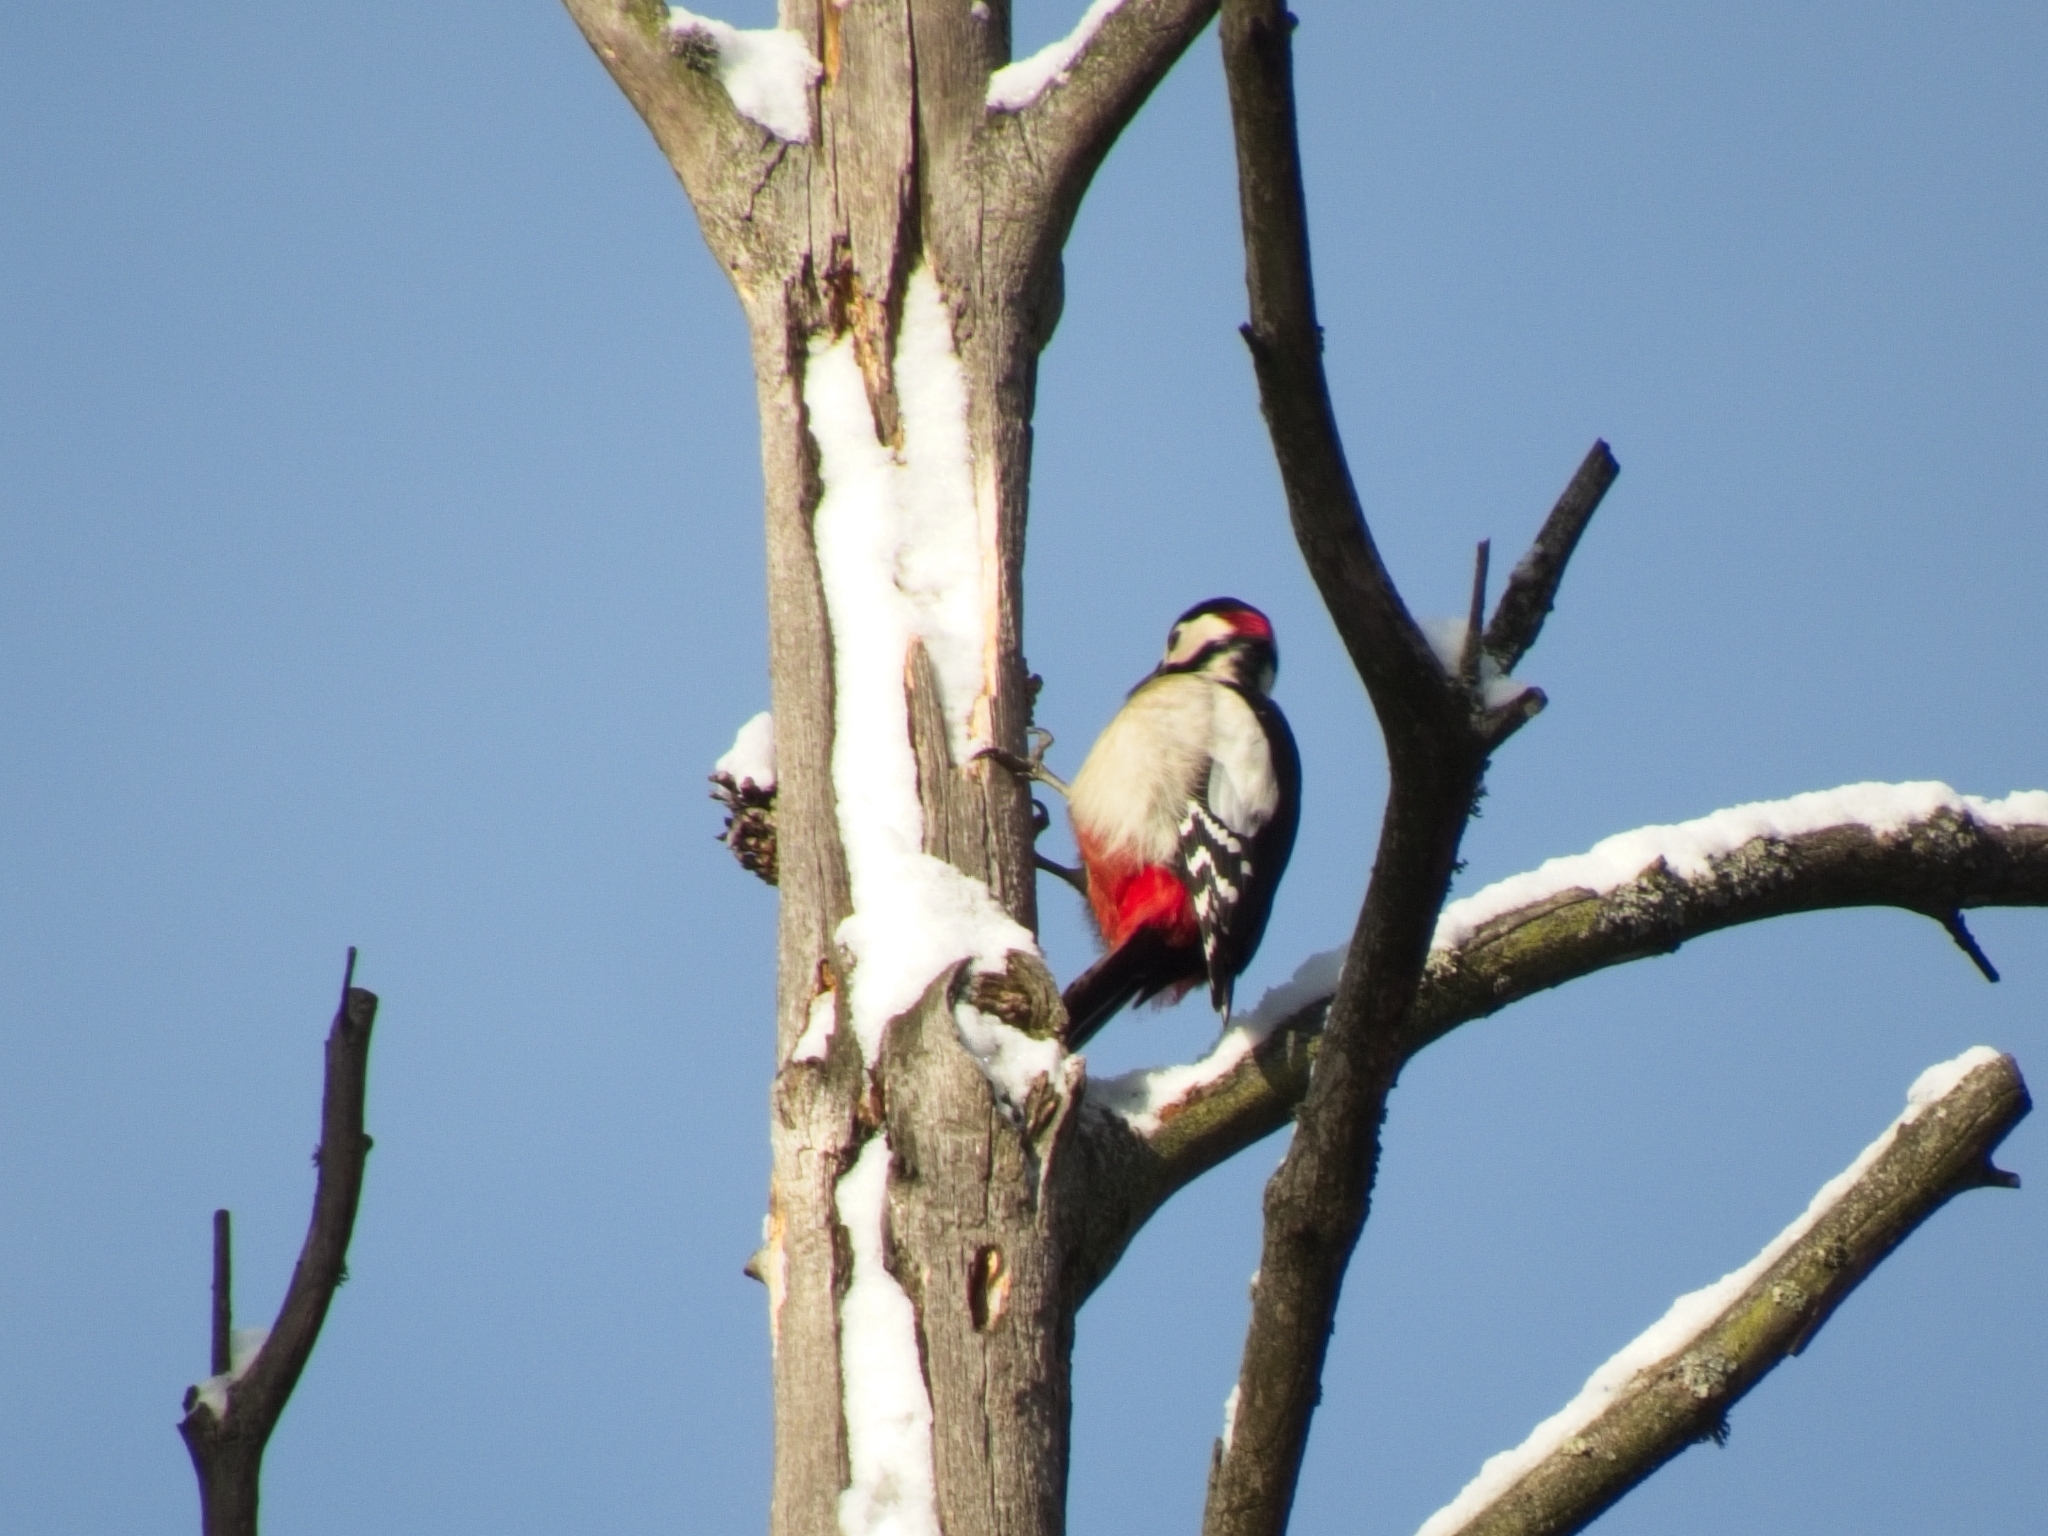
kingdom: Animalia
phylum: Chordata
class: Aves
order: Piciformes
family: Picidae
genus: Dendrocopos
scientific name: Dendrocopos major
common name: Great spotted woodpecker
